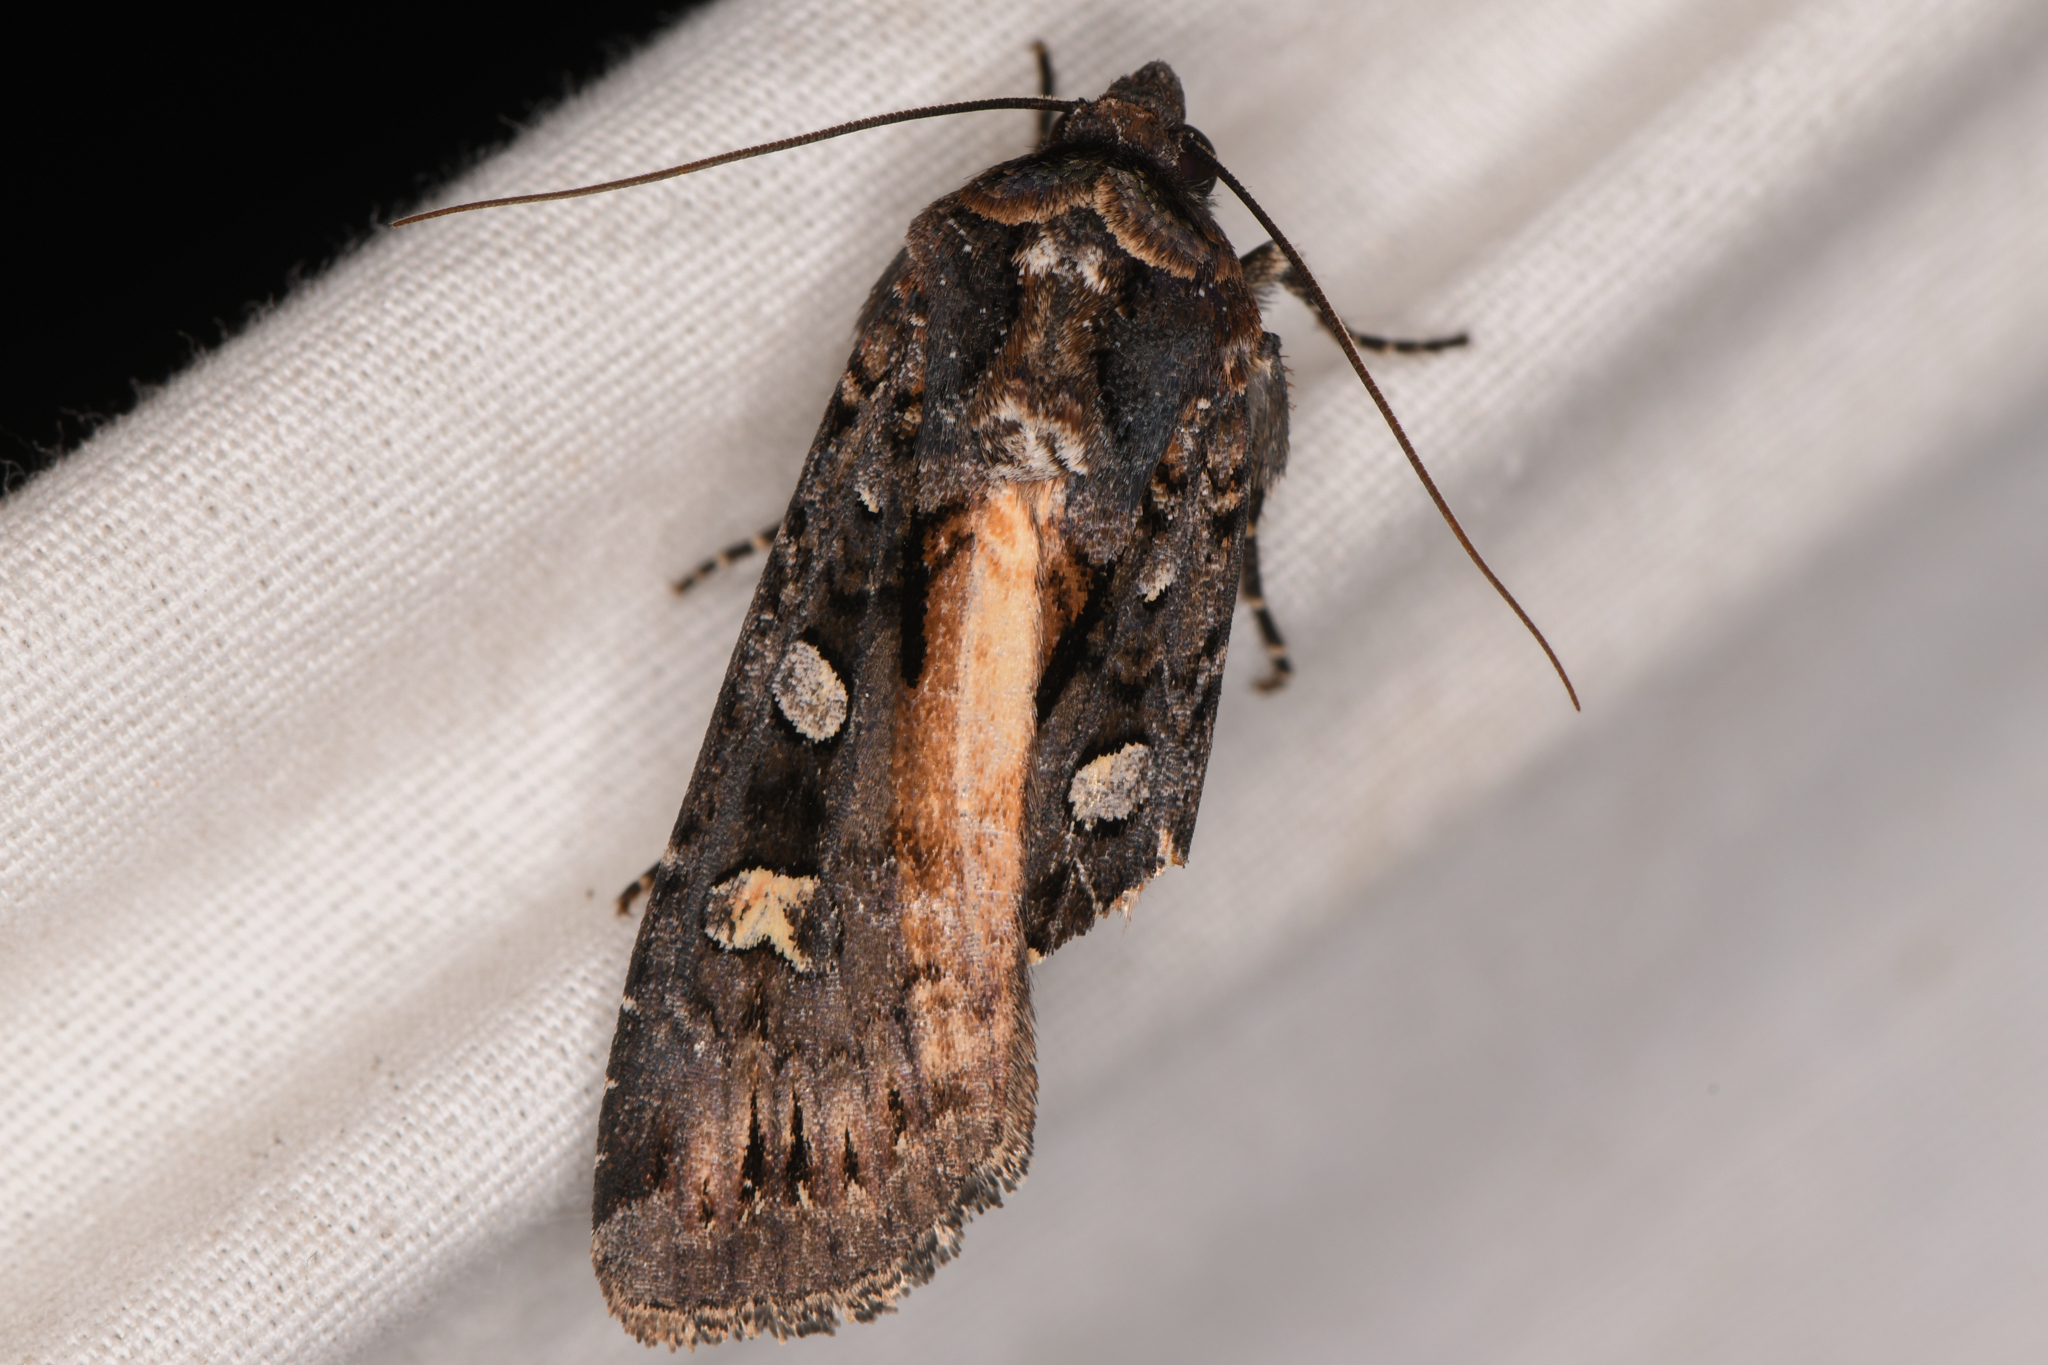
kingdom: Animalia
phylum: Arthropoda
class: Insecta
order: Lepidoptera
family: Noctuidae
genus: Actebia
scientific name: Actebia fennica
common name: Eversmann's rustic
